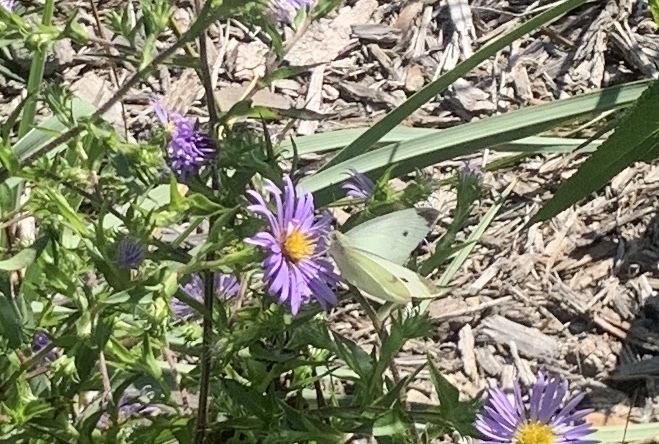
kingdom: Animalia
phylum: Arthropoda
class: Insecta
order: Lepidoptera
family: Pieridae
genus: Pieris
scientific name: Pieris rapae
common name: Small white
